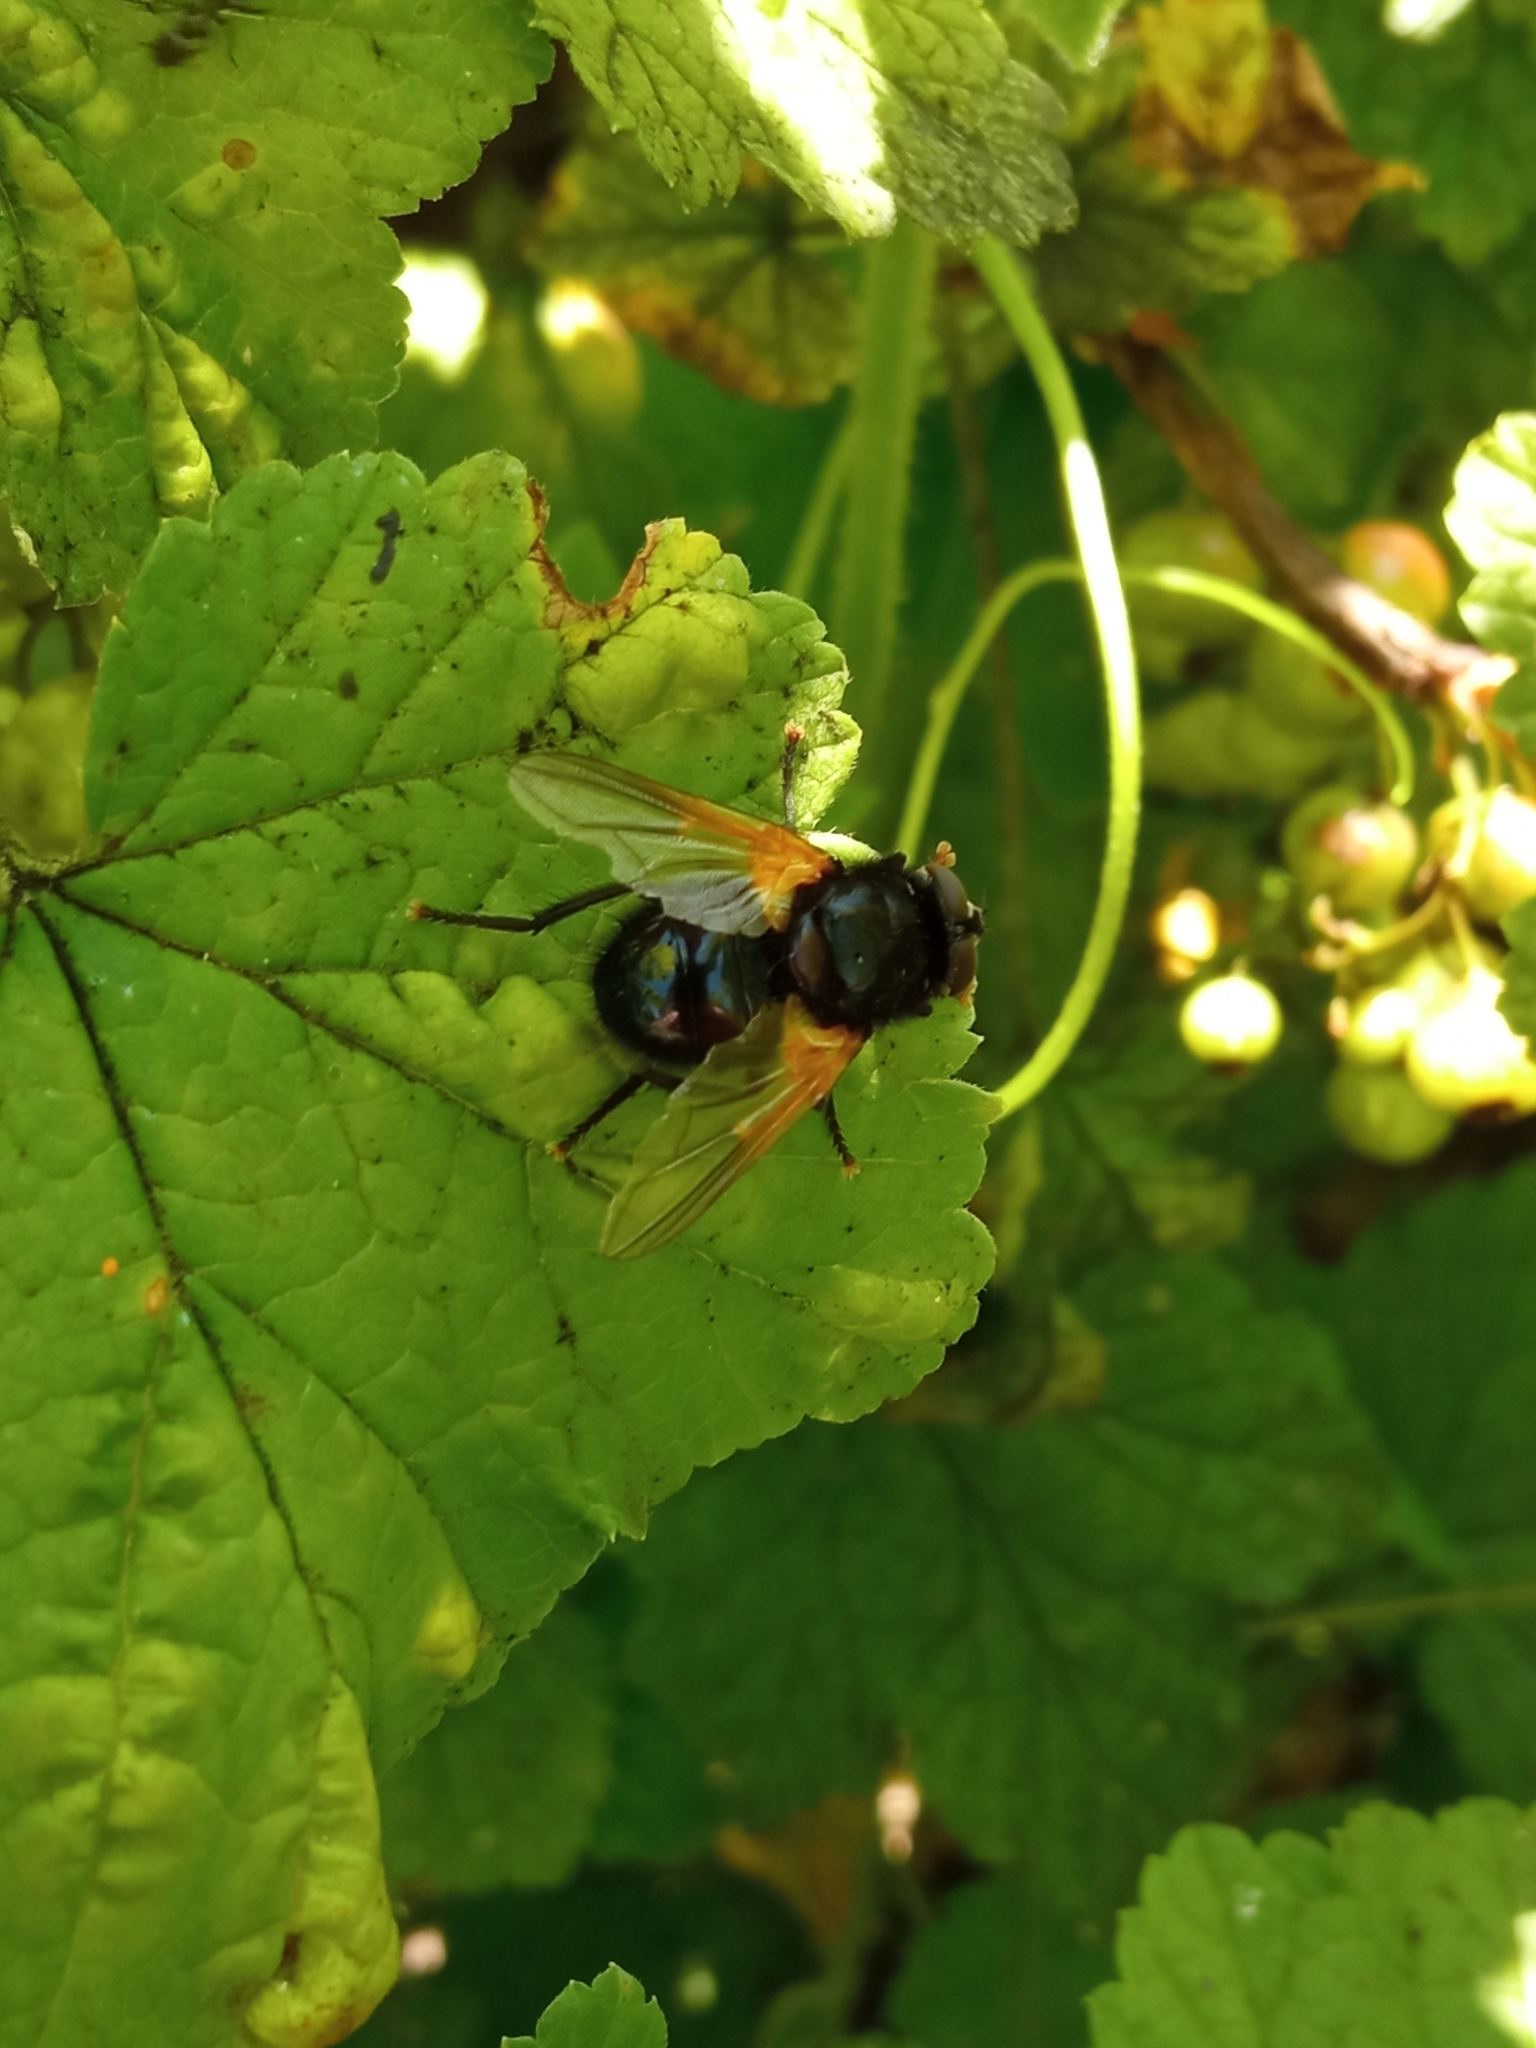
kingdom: Animalia
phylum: Arthropoda
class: Insecta
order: Diptera
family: Muscidae
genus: Mesembrina
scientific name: Mesembrina meridiana
